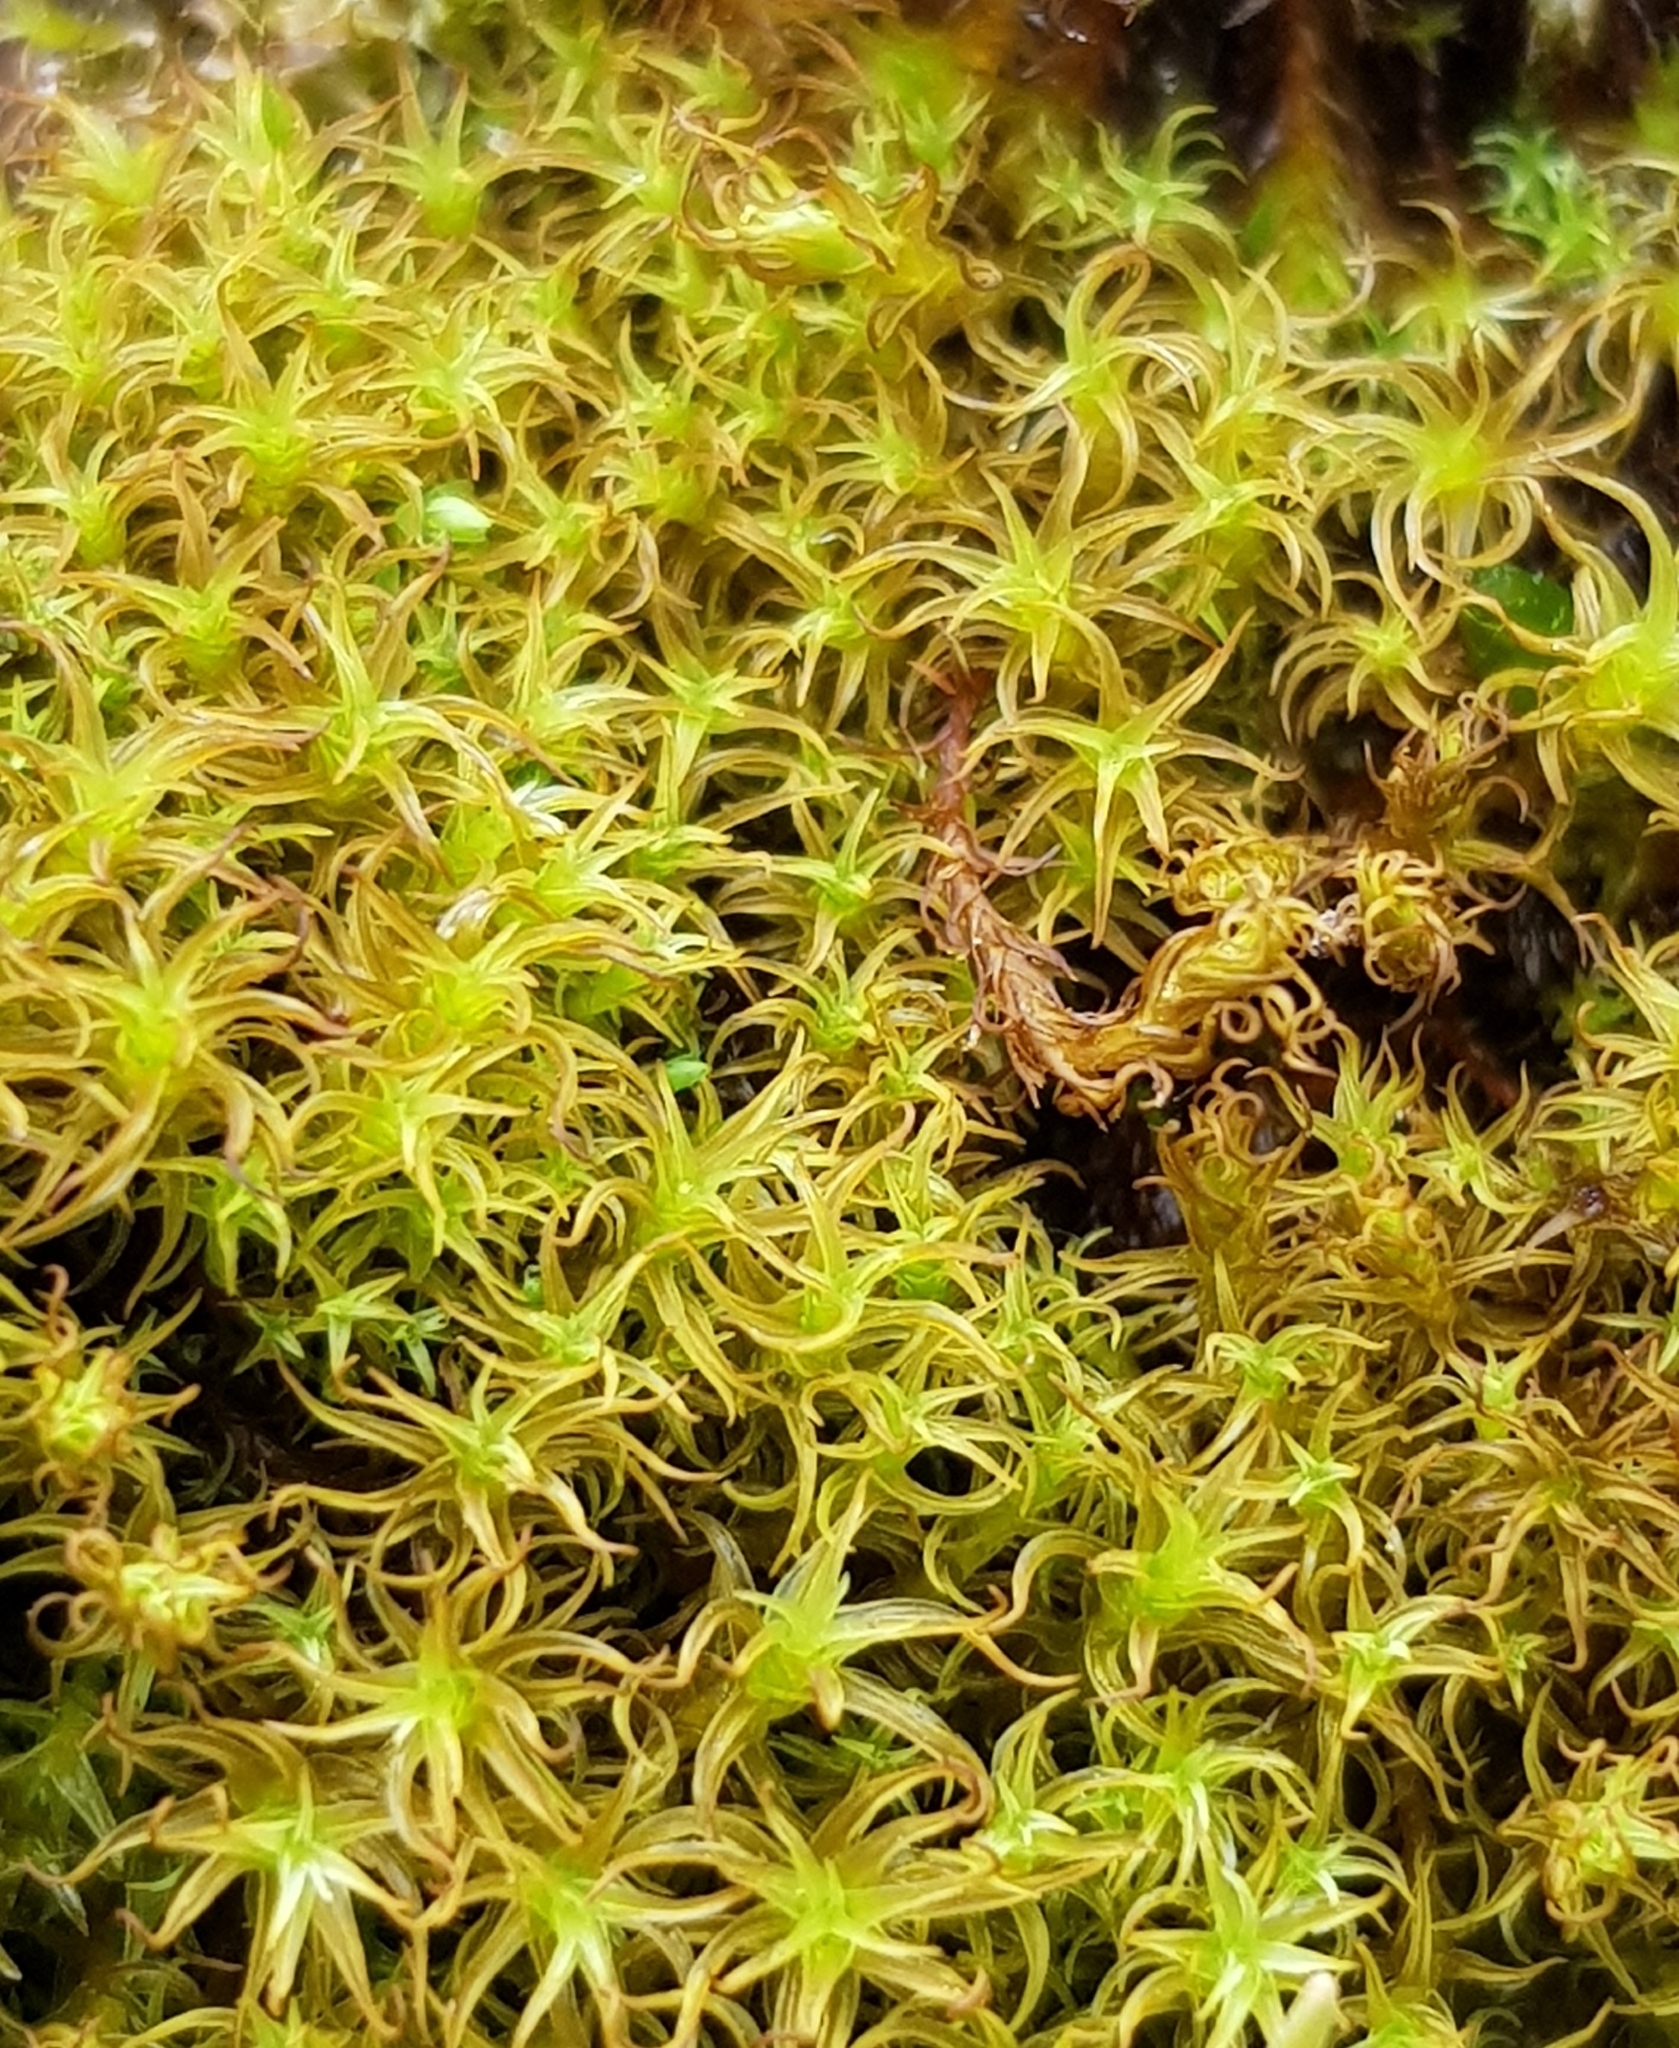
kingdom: Plantae
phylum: Bryophyta
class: Bryopsida
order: Pottiales
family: Pottiaceae
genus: Vinealobryum
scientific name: Vinealobryum insulanum
